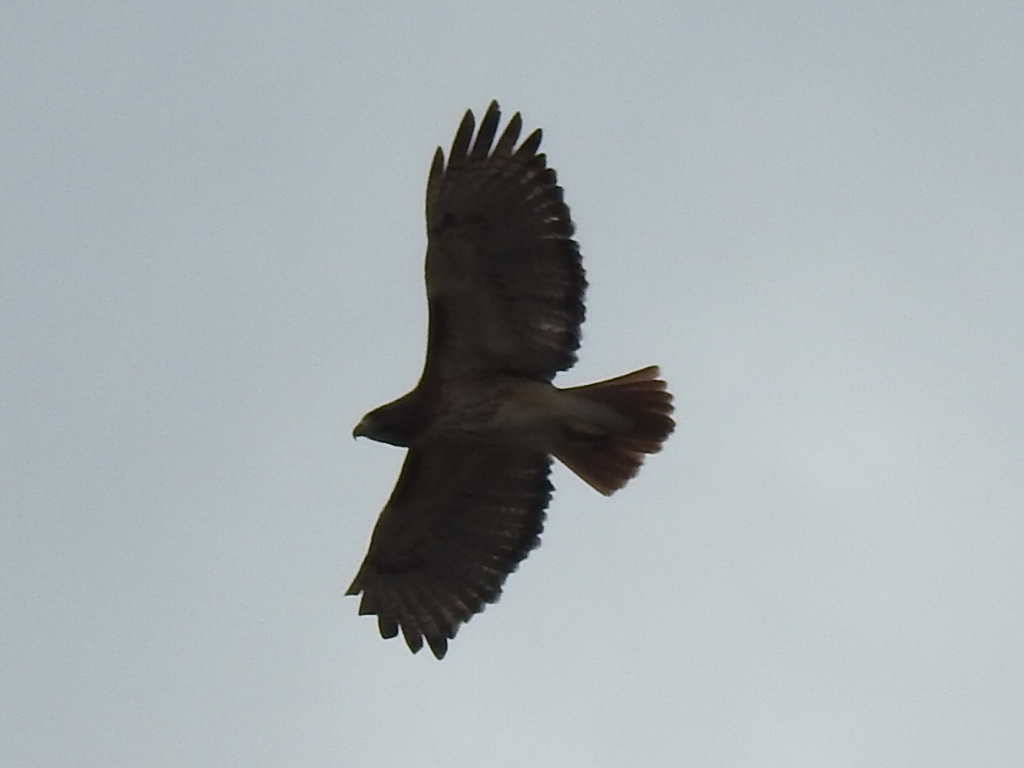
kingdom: Animalia
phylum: Chordata
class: Aves
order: Accipitriformes
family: Accipitridae
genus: Buteo
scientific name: Buteo jamaicensis
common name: Red-tailed hawk
